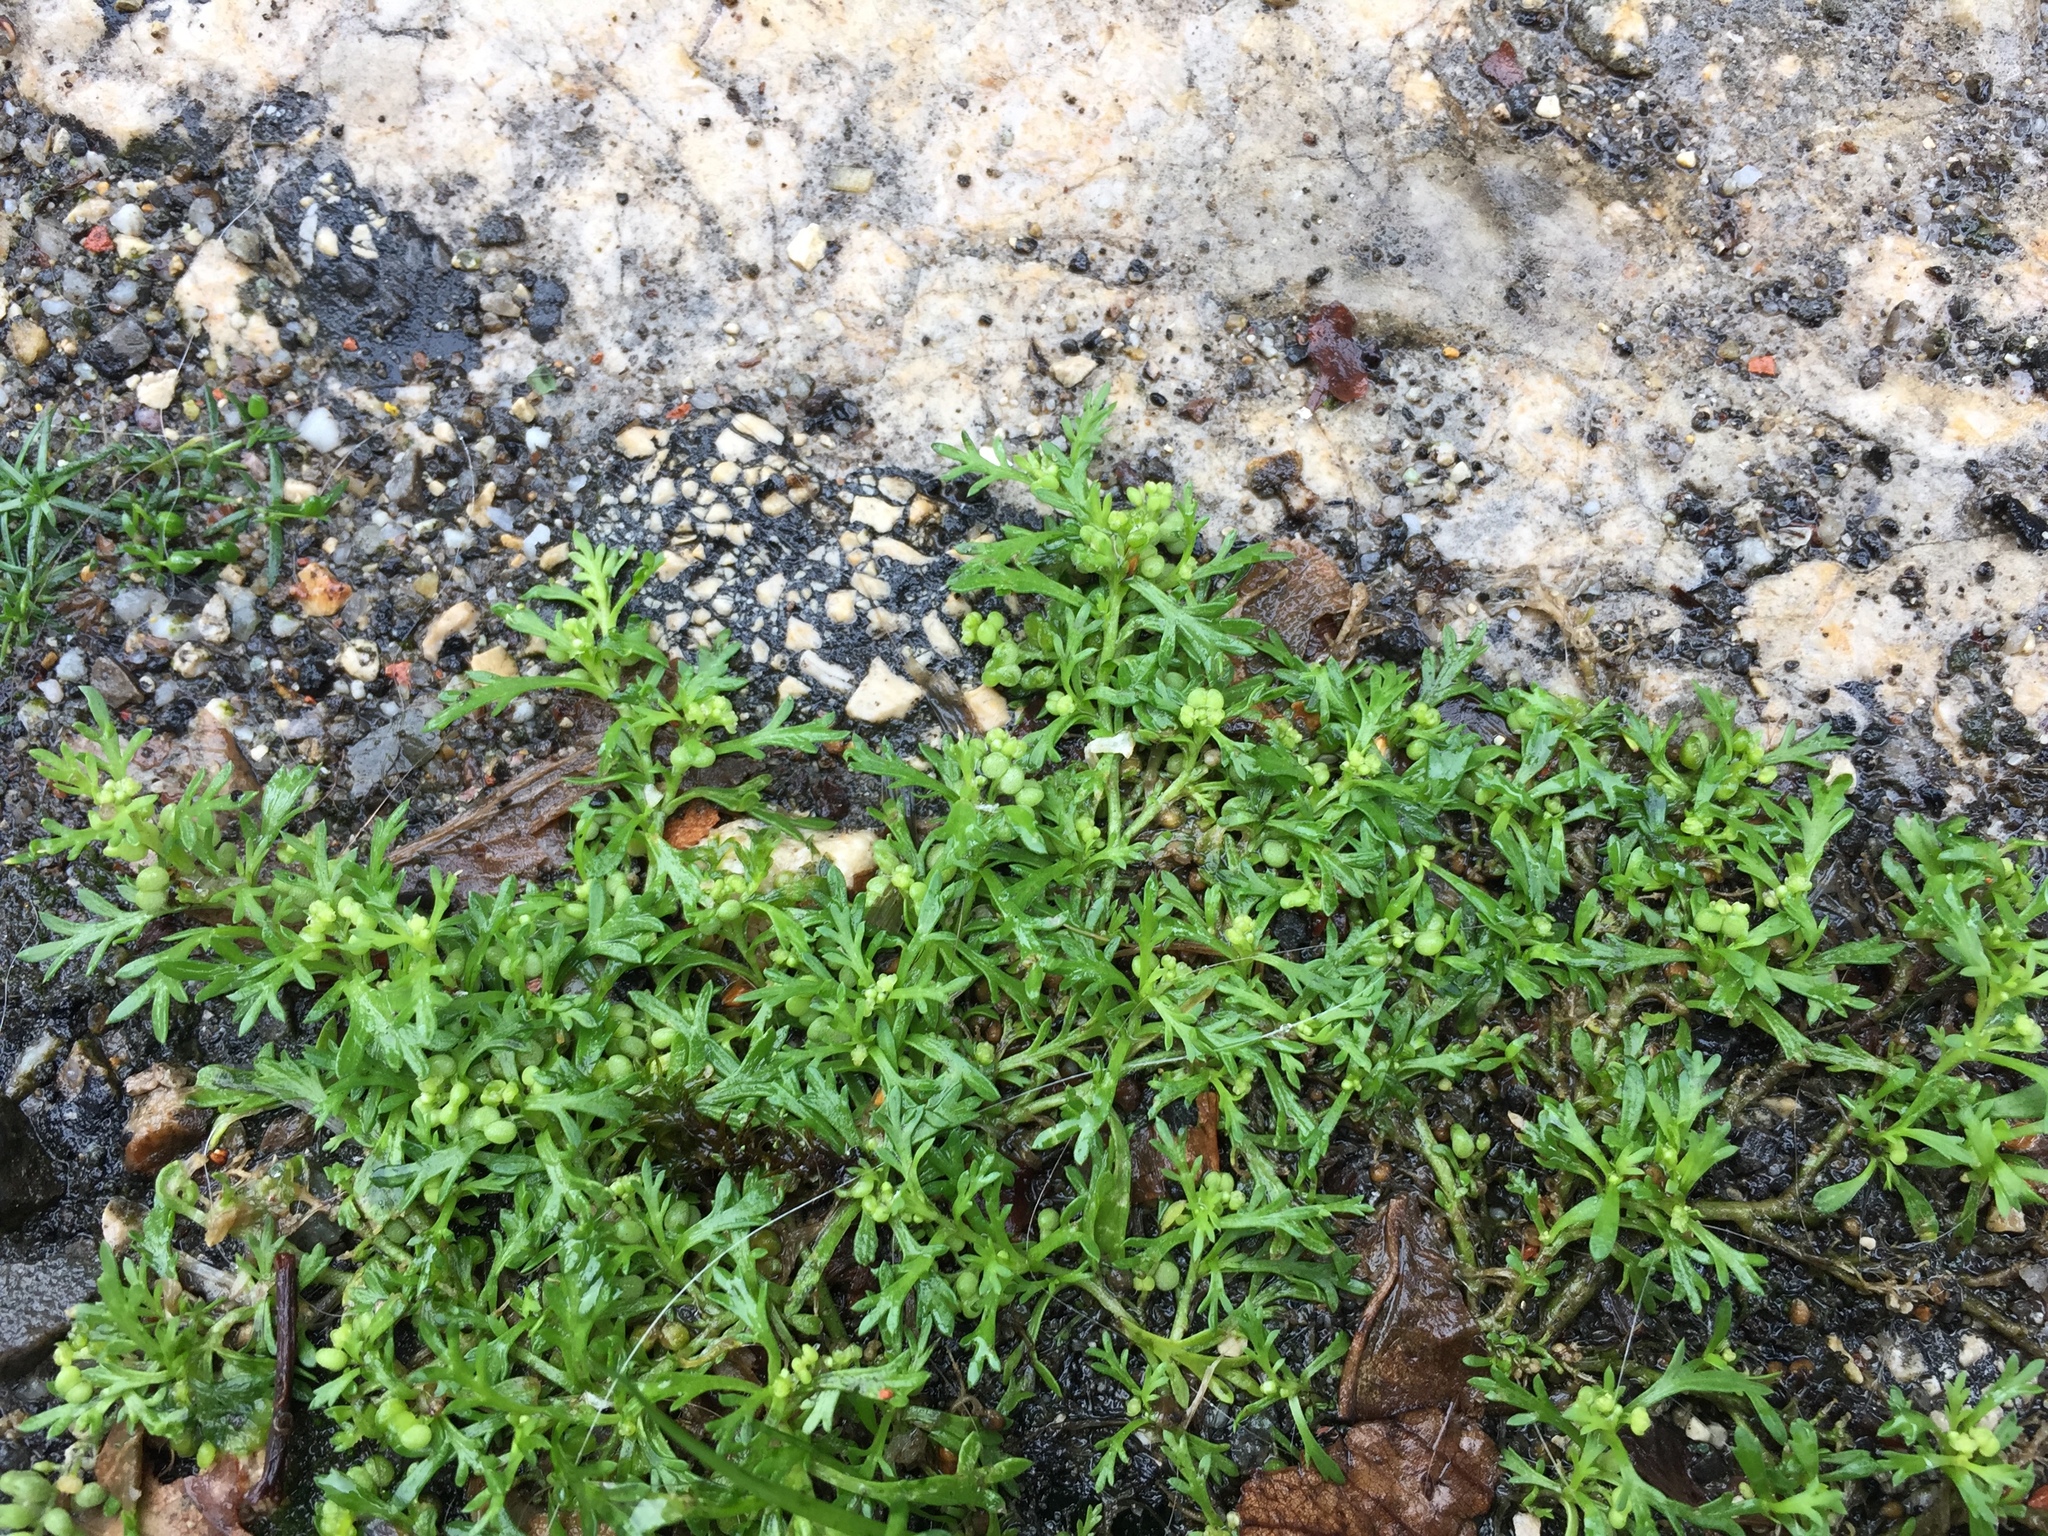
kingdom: Plantae
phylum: Tracheophyta
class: Magnoliopsida
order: Brassicales
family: Brassicaceae
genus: Lepidium
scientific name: Lepidium didymum
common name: Lesser swinecress
